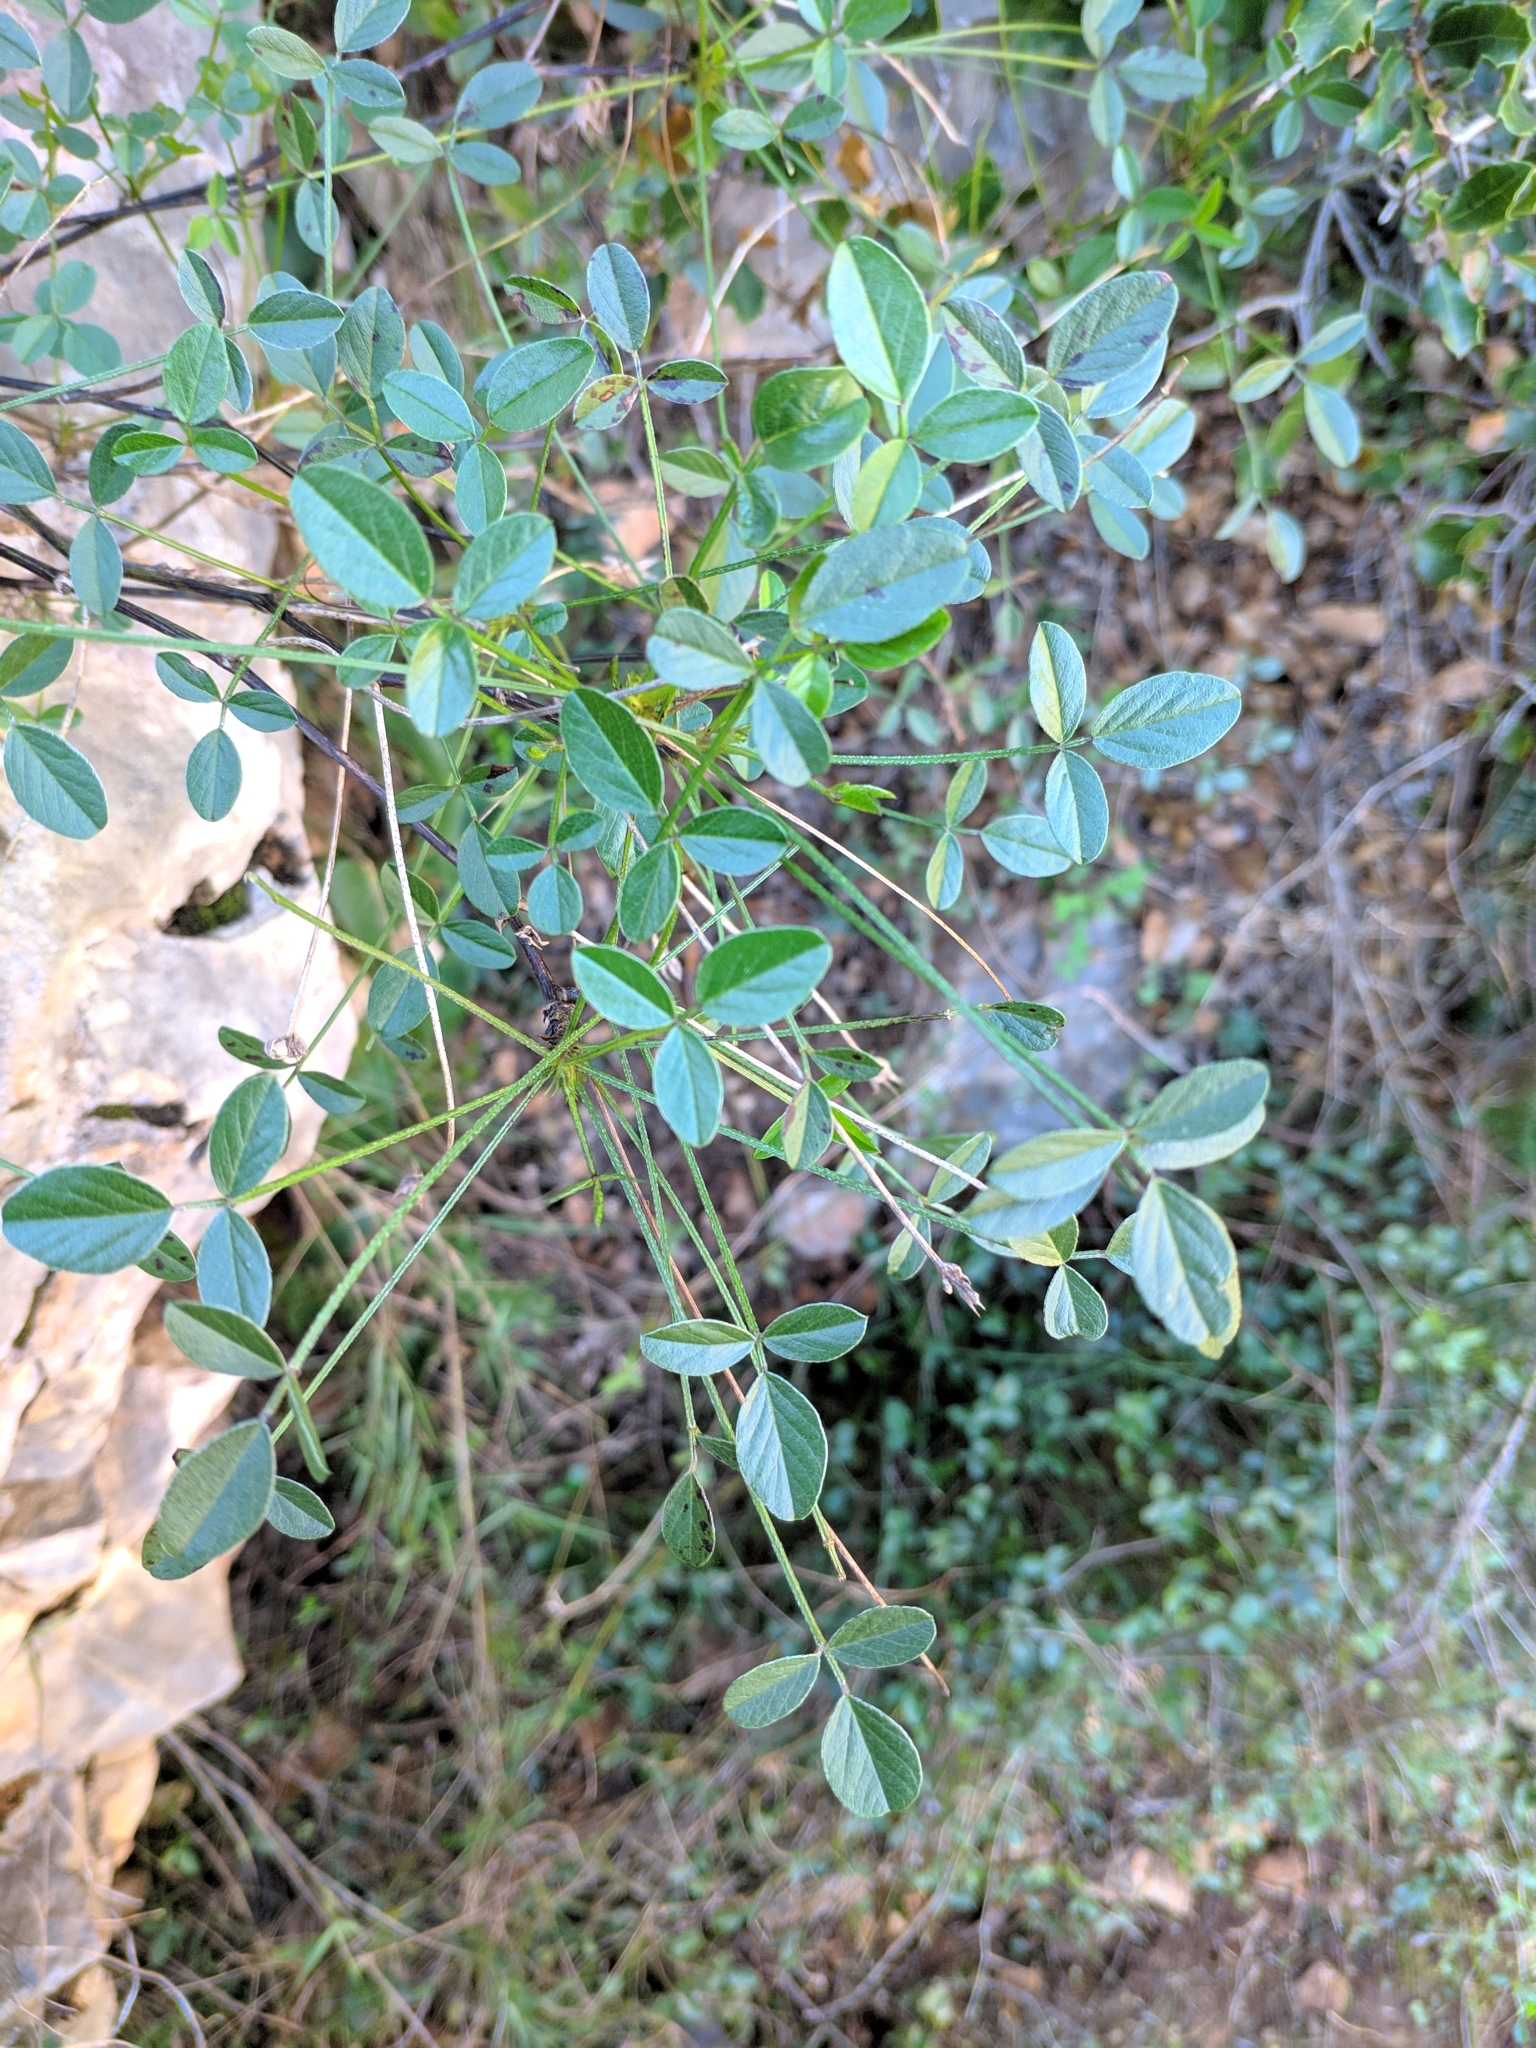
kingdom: Plantae
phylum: Tracheophyta
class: Magnoliopsida
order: Fabales
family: Fabaceae
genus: Bituminaria
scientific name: Bituminaria bituminosa
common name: Arabian pea
